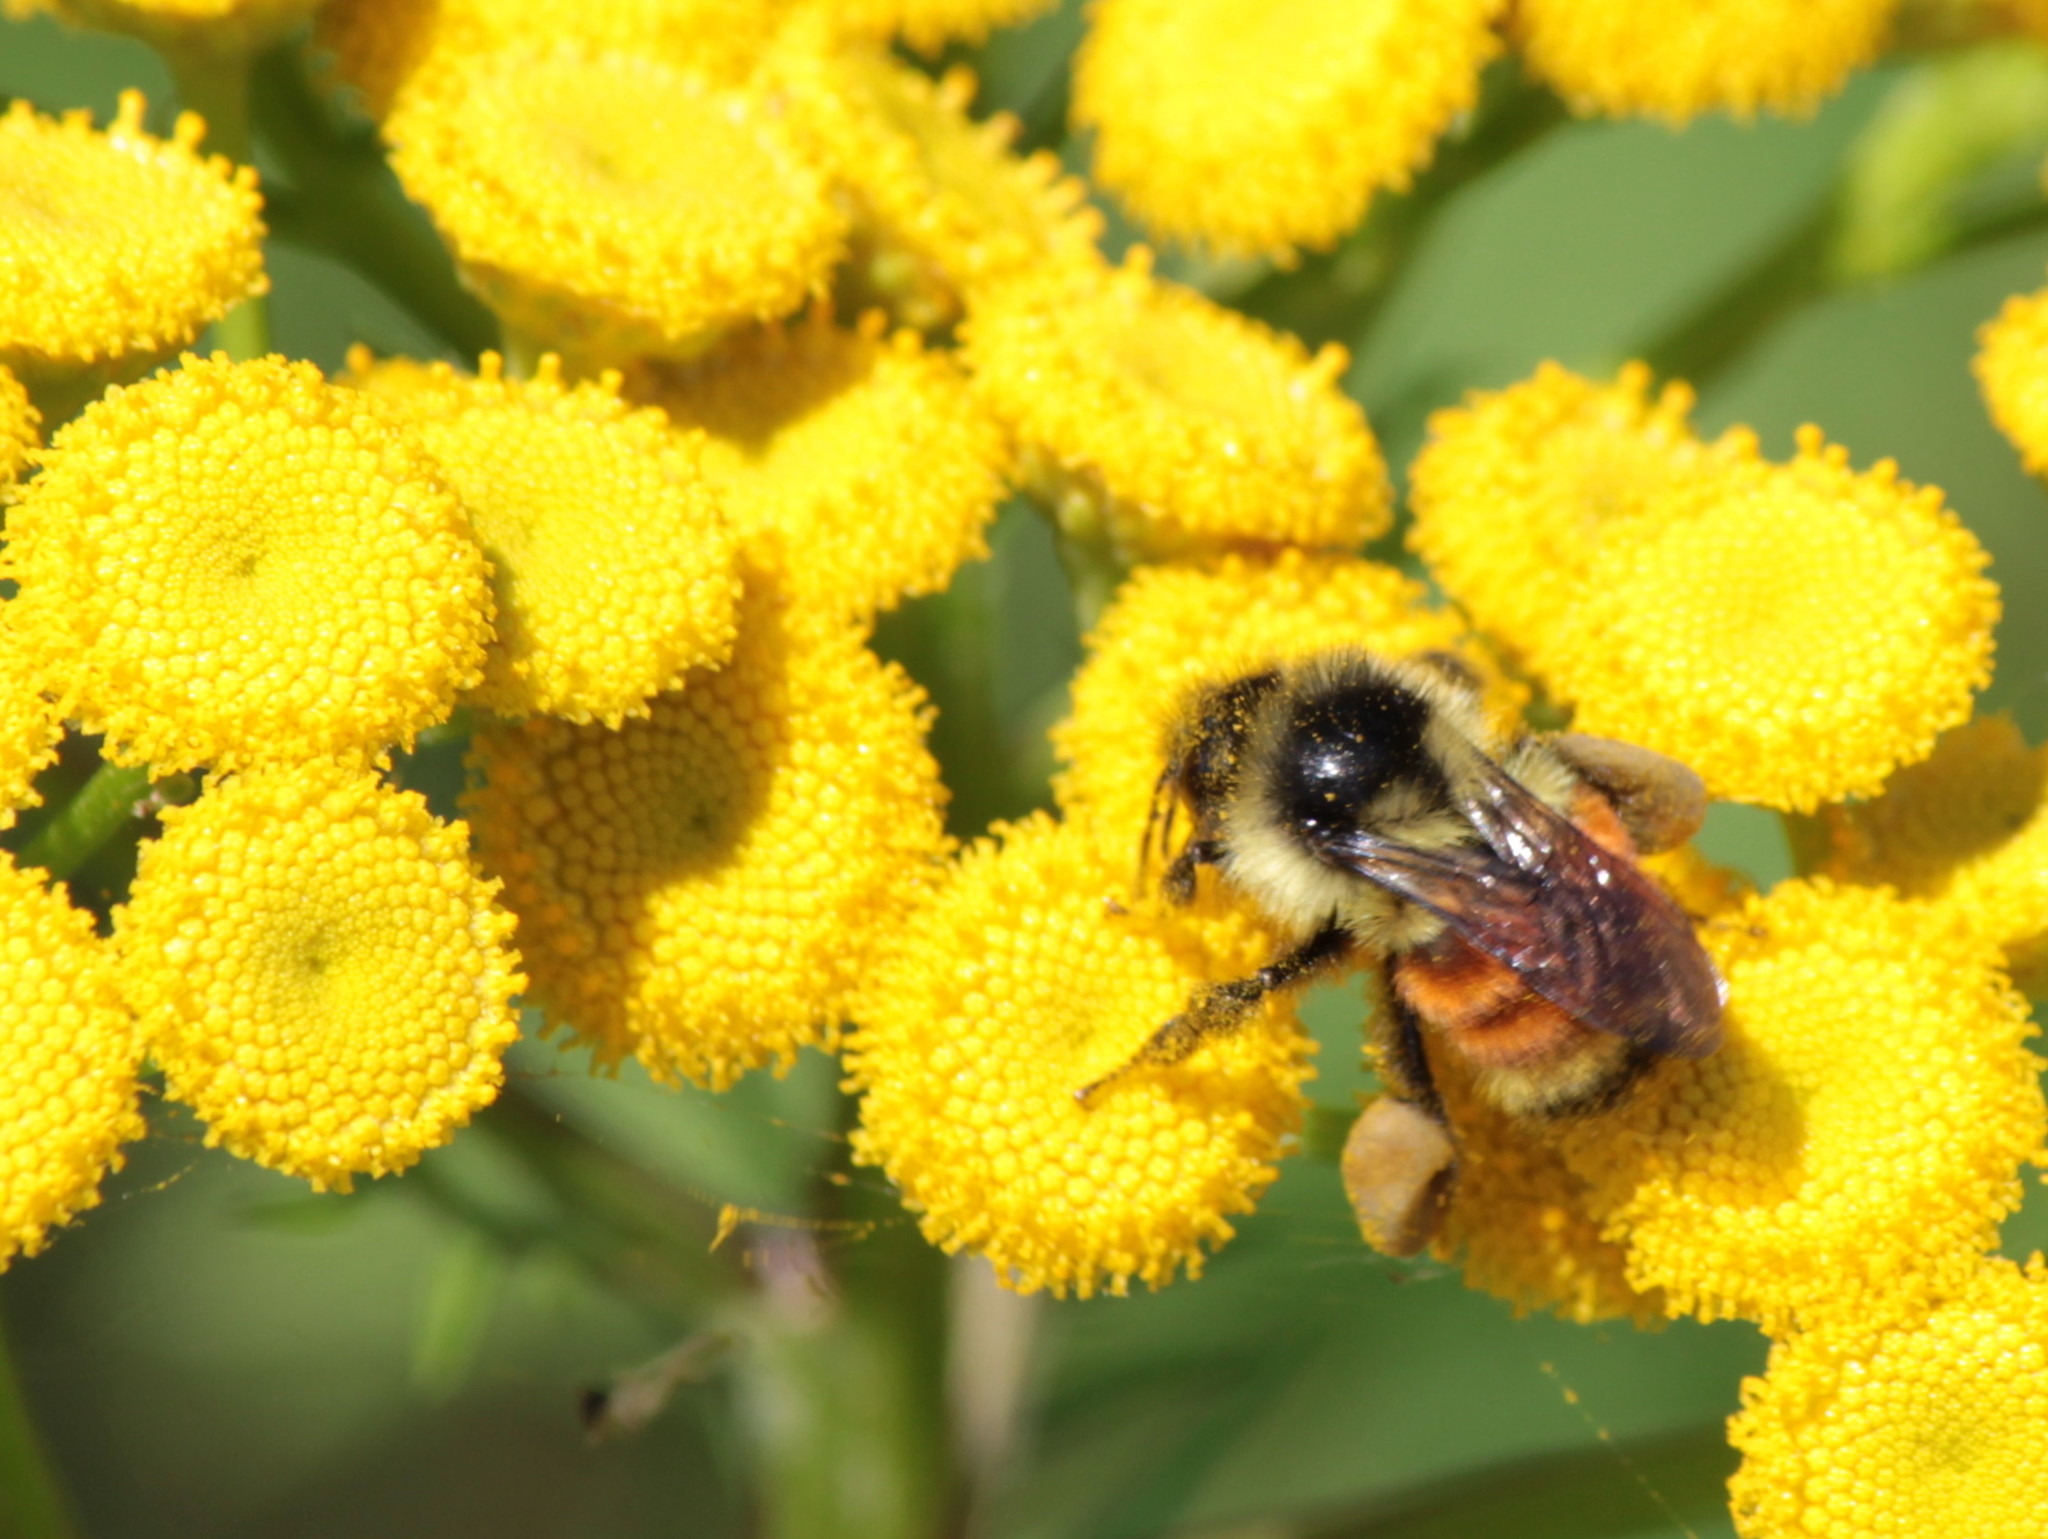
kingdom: Animalia
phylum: Arthropoda
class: Insecta
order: Hymenoptera
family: Apidae
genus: Bombus
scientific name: Bombus ternarius
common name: Tri-colored bumble bee
